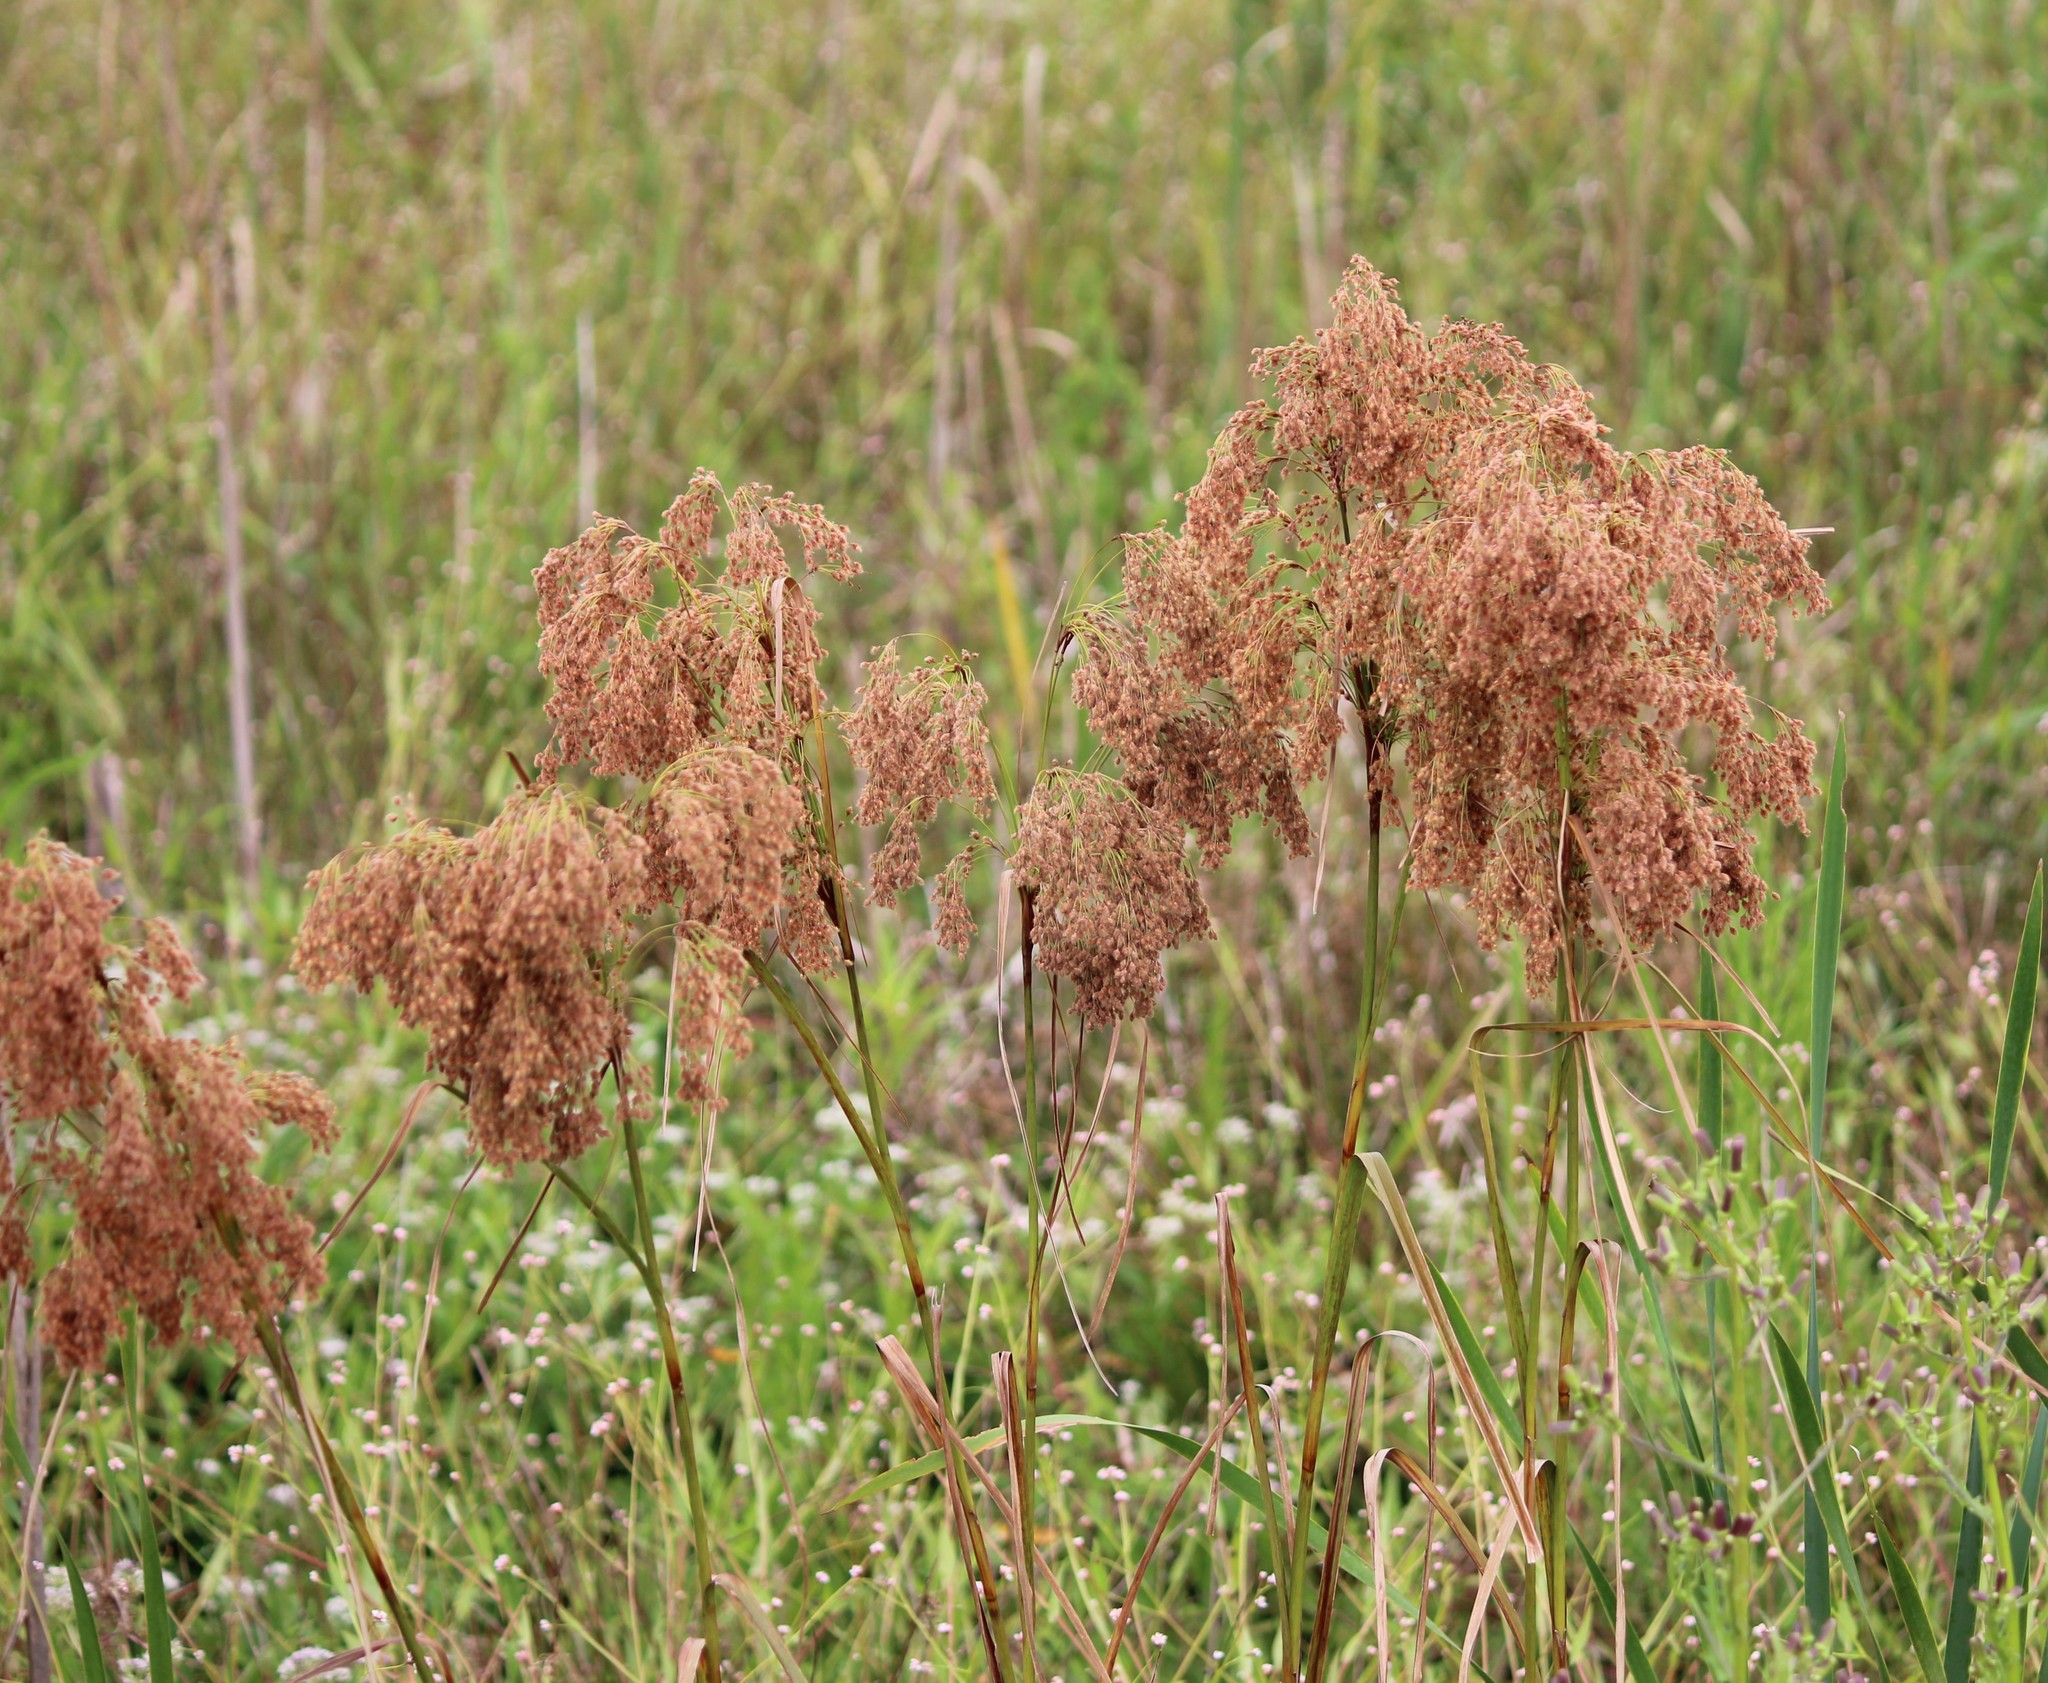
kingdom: Plantae
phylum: Tracheophyta
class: Liliopsida
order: Poales
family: Cyperaceae
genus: Scirpus
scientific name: Scirpus cyperinus
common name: Black-sheathed bulrush
